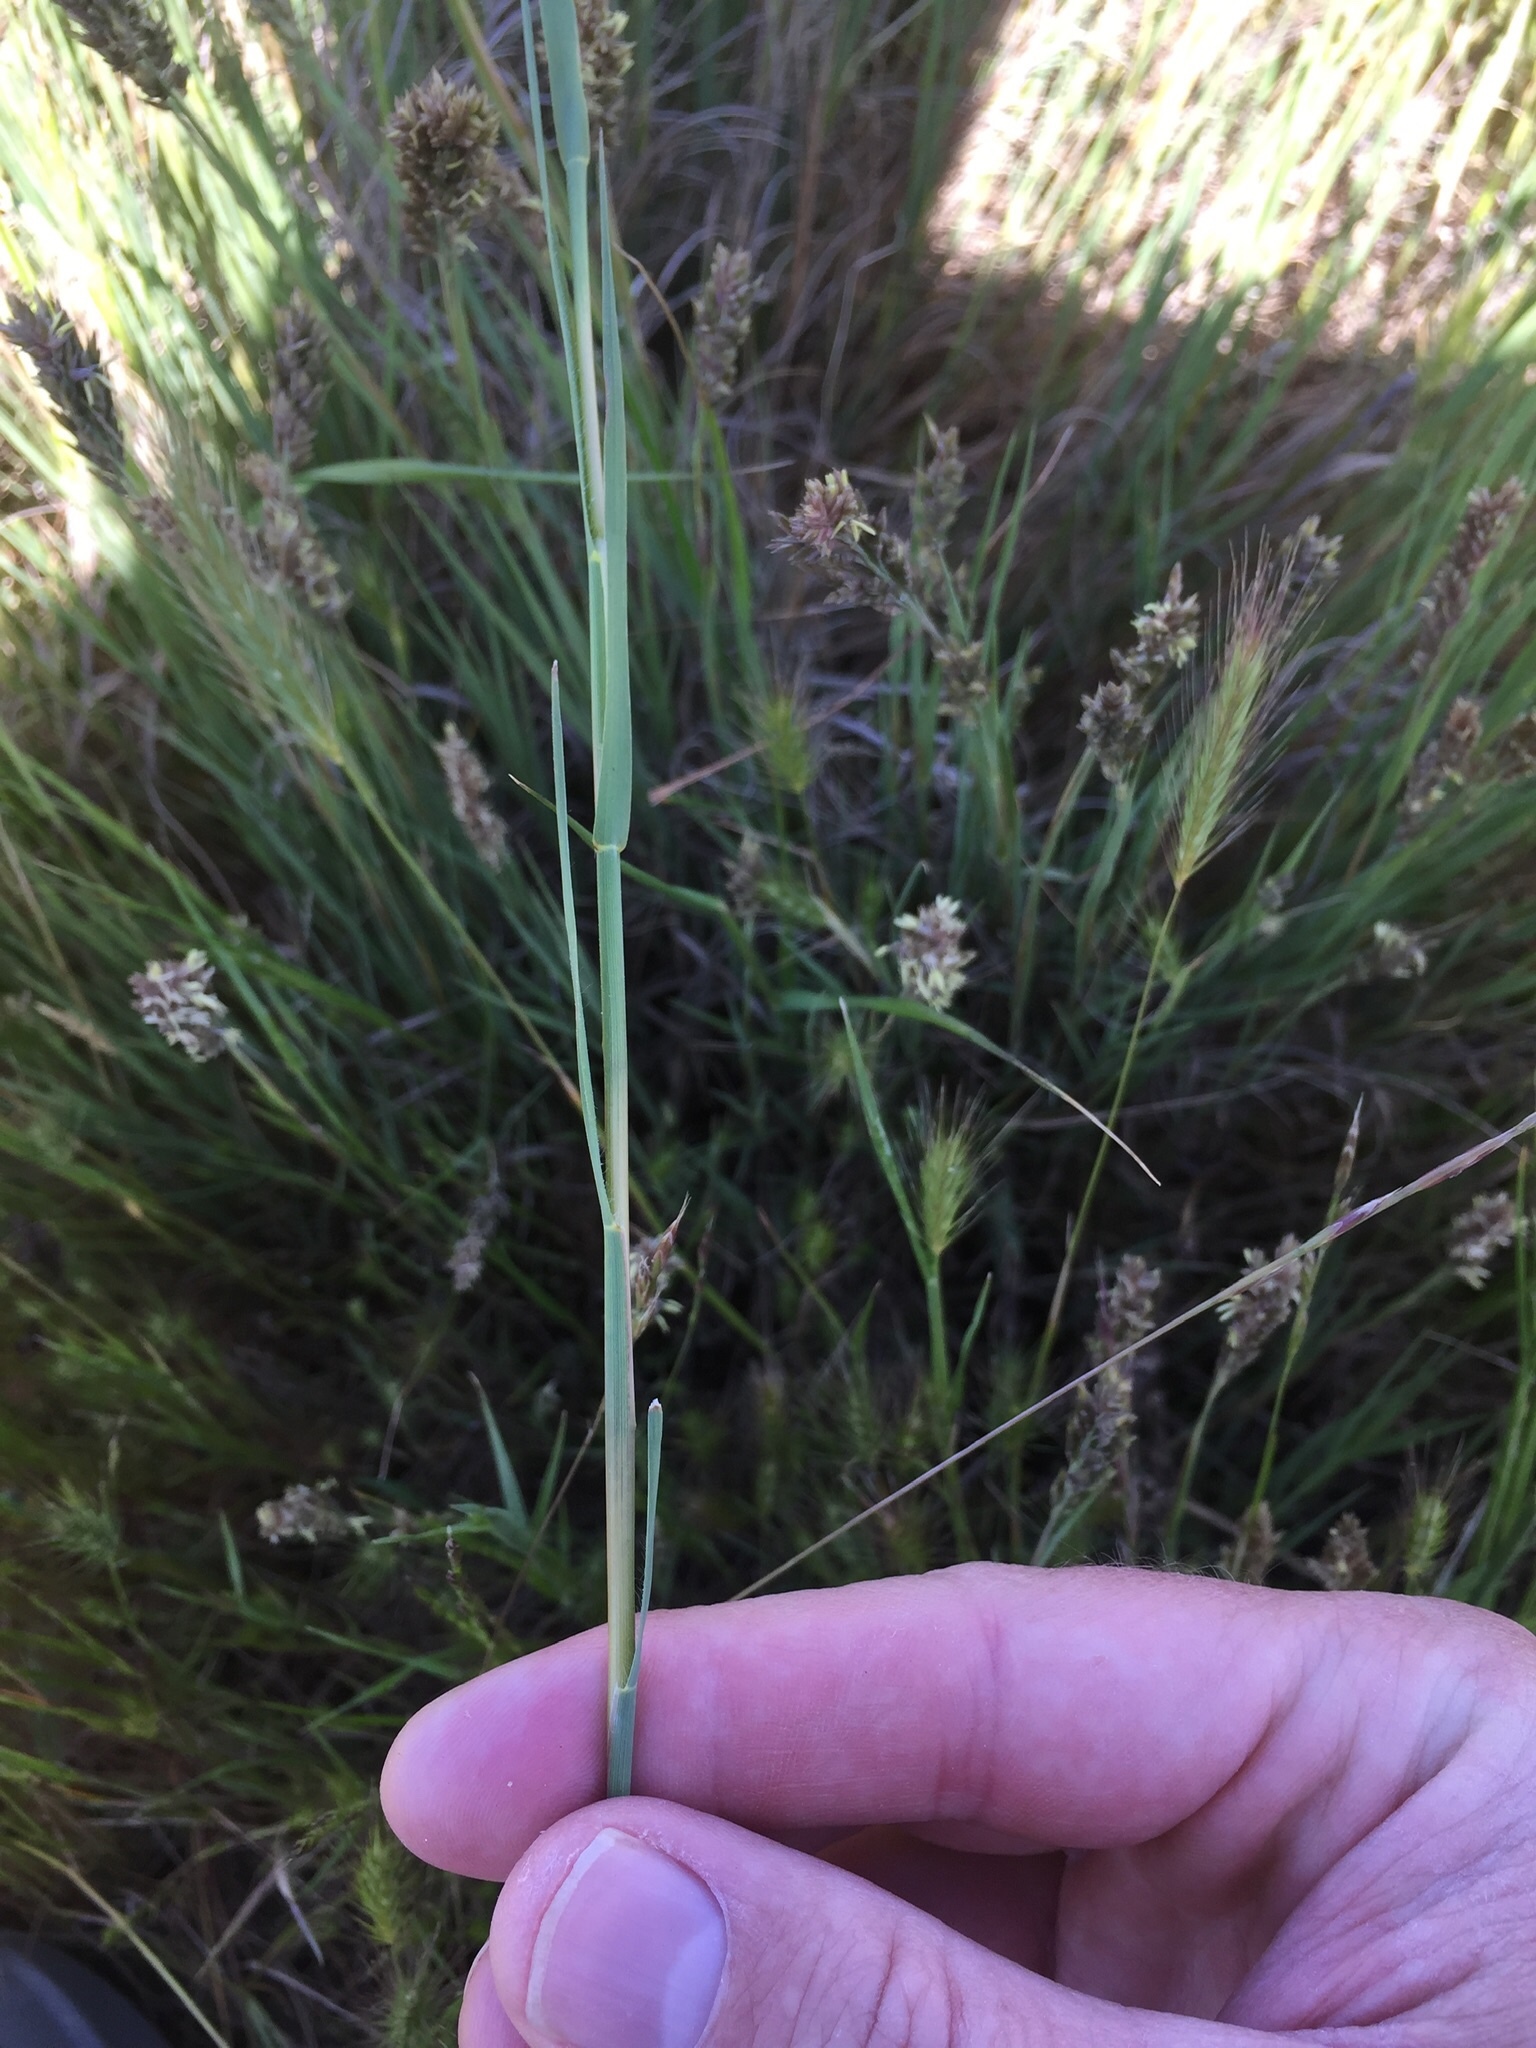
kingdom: Plantae
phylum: Tracheophyta
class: Liliopsida
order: Poales
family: Poaceae
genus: Distichlis
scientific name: Distichlis spicata
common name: Saltgrass
